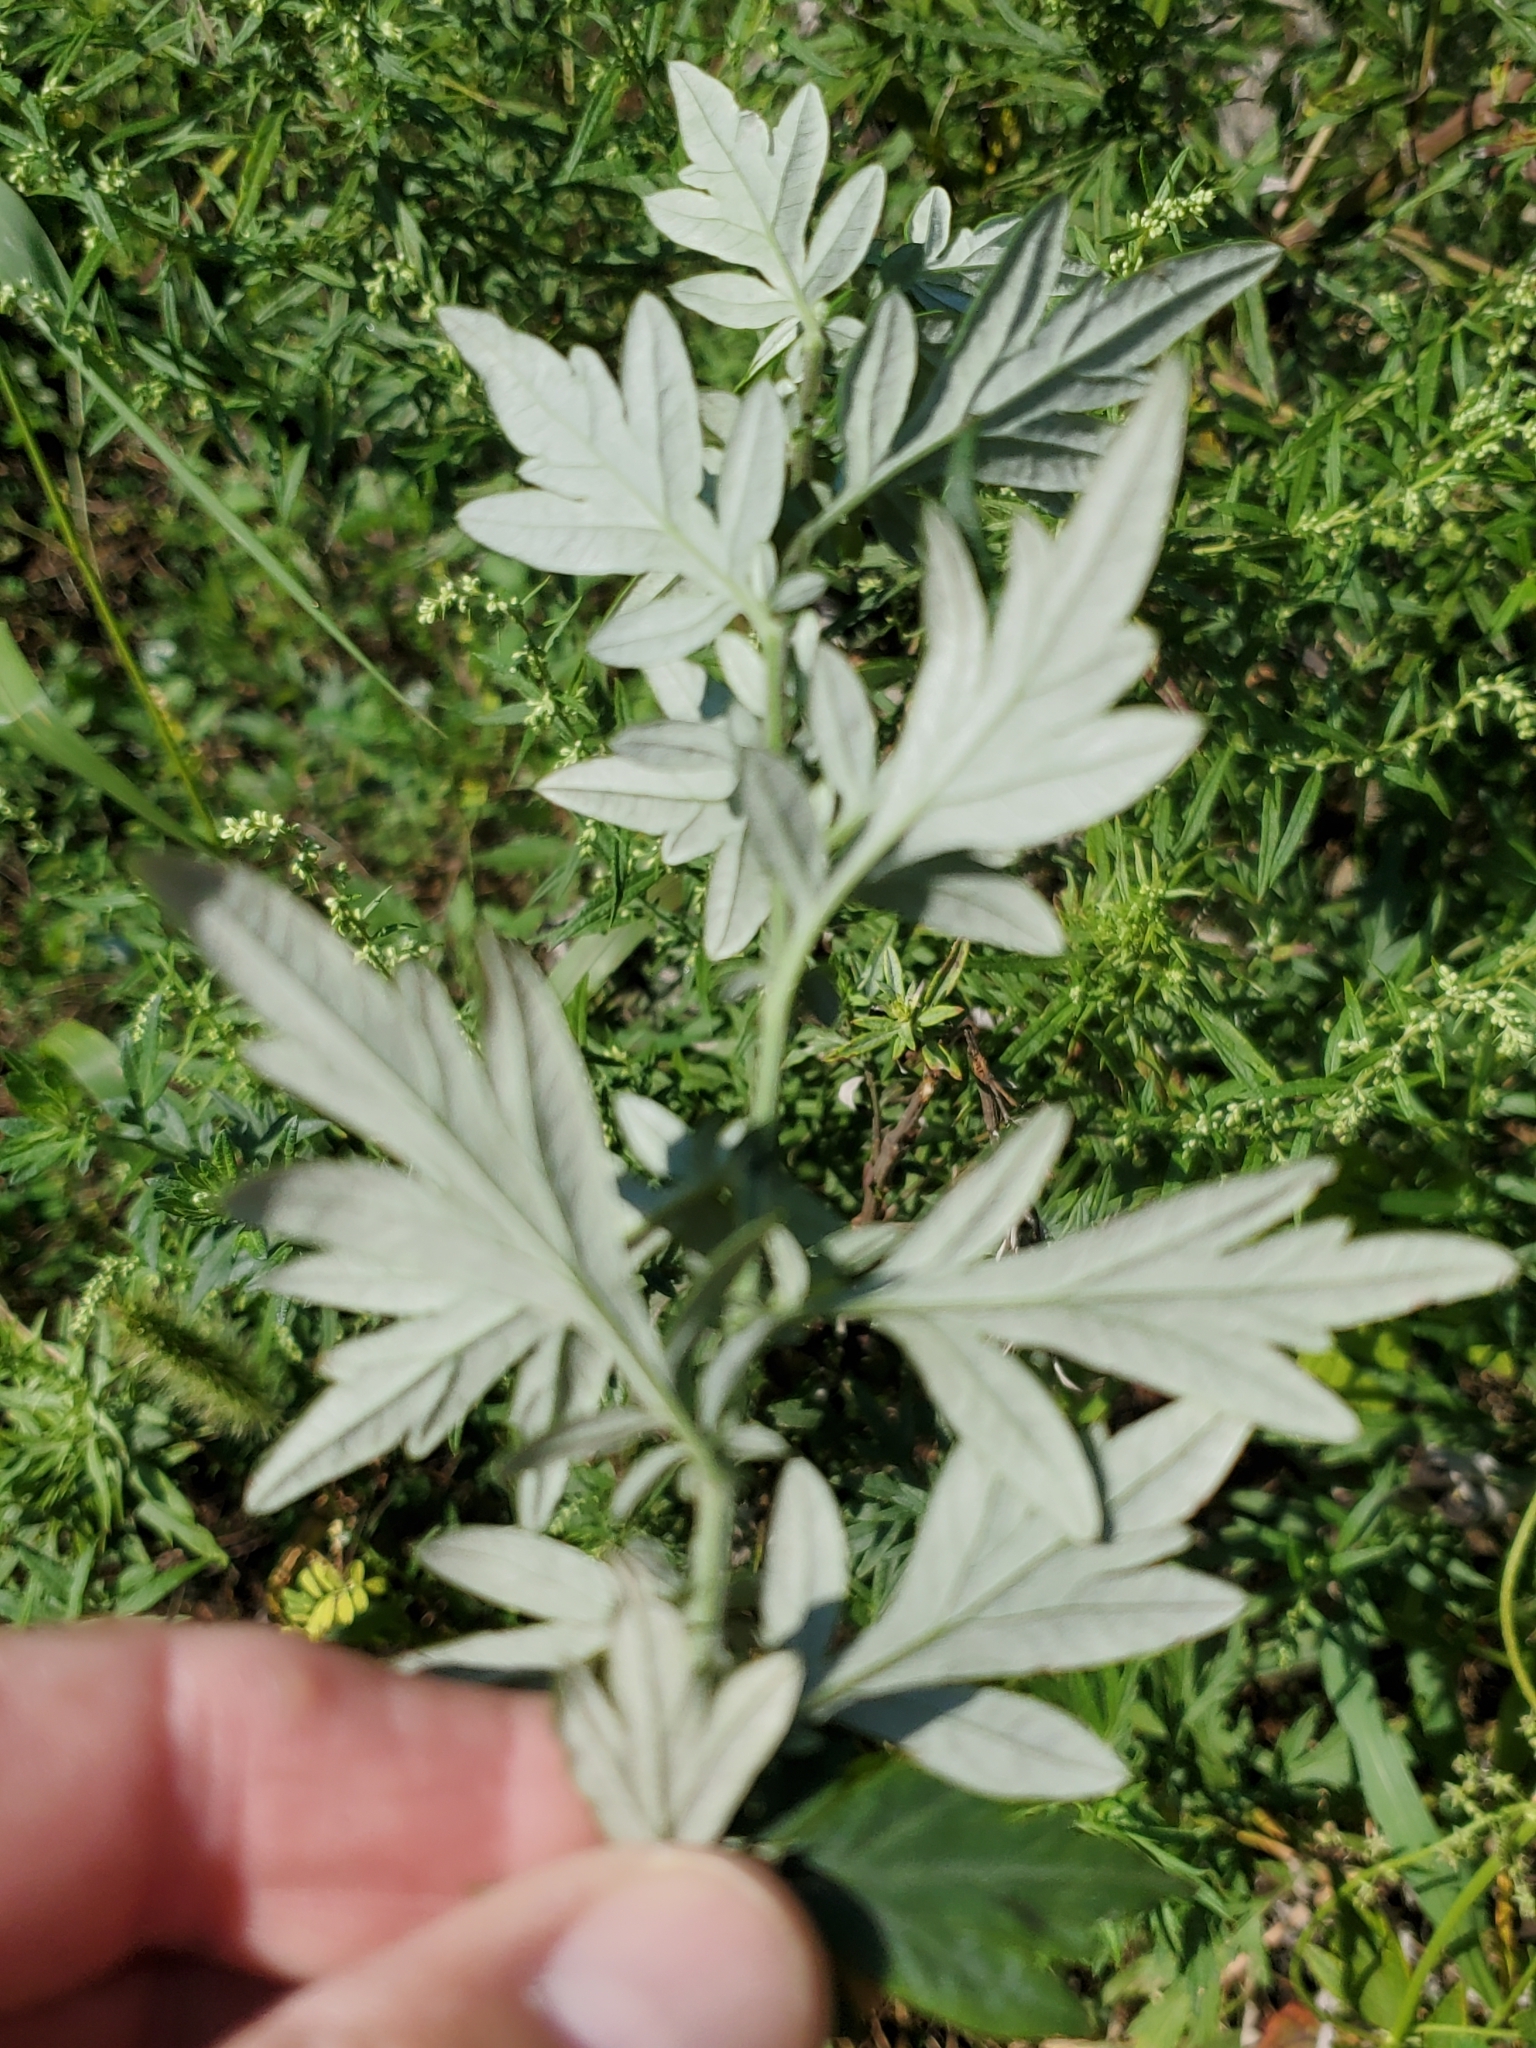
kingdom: Plantae
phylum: Tracheophyta
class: Magnoliopsida
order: Asterales
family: Asteraceae
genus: Artemisia
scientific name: Artemisia vulgaris
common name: Mugwort
